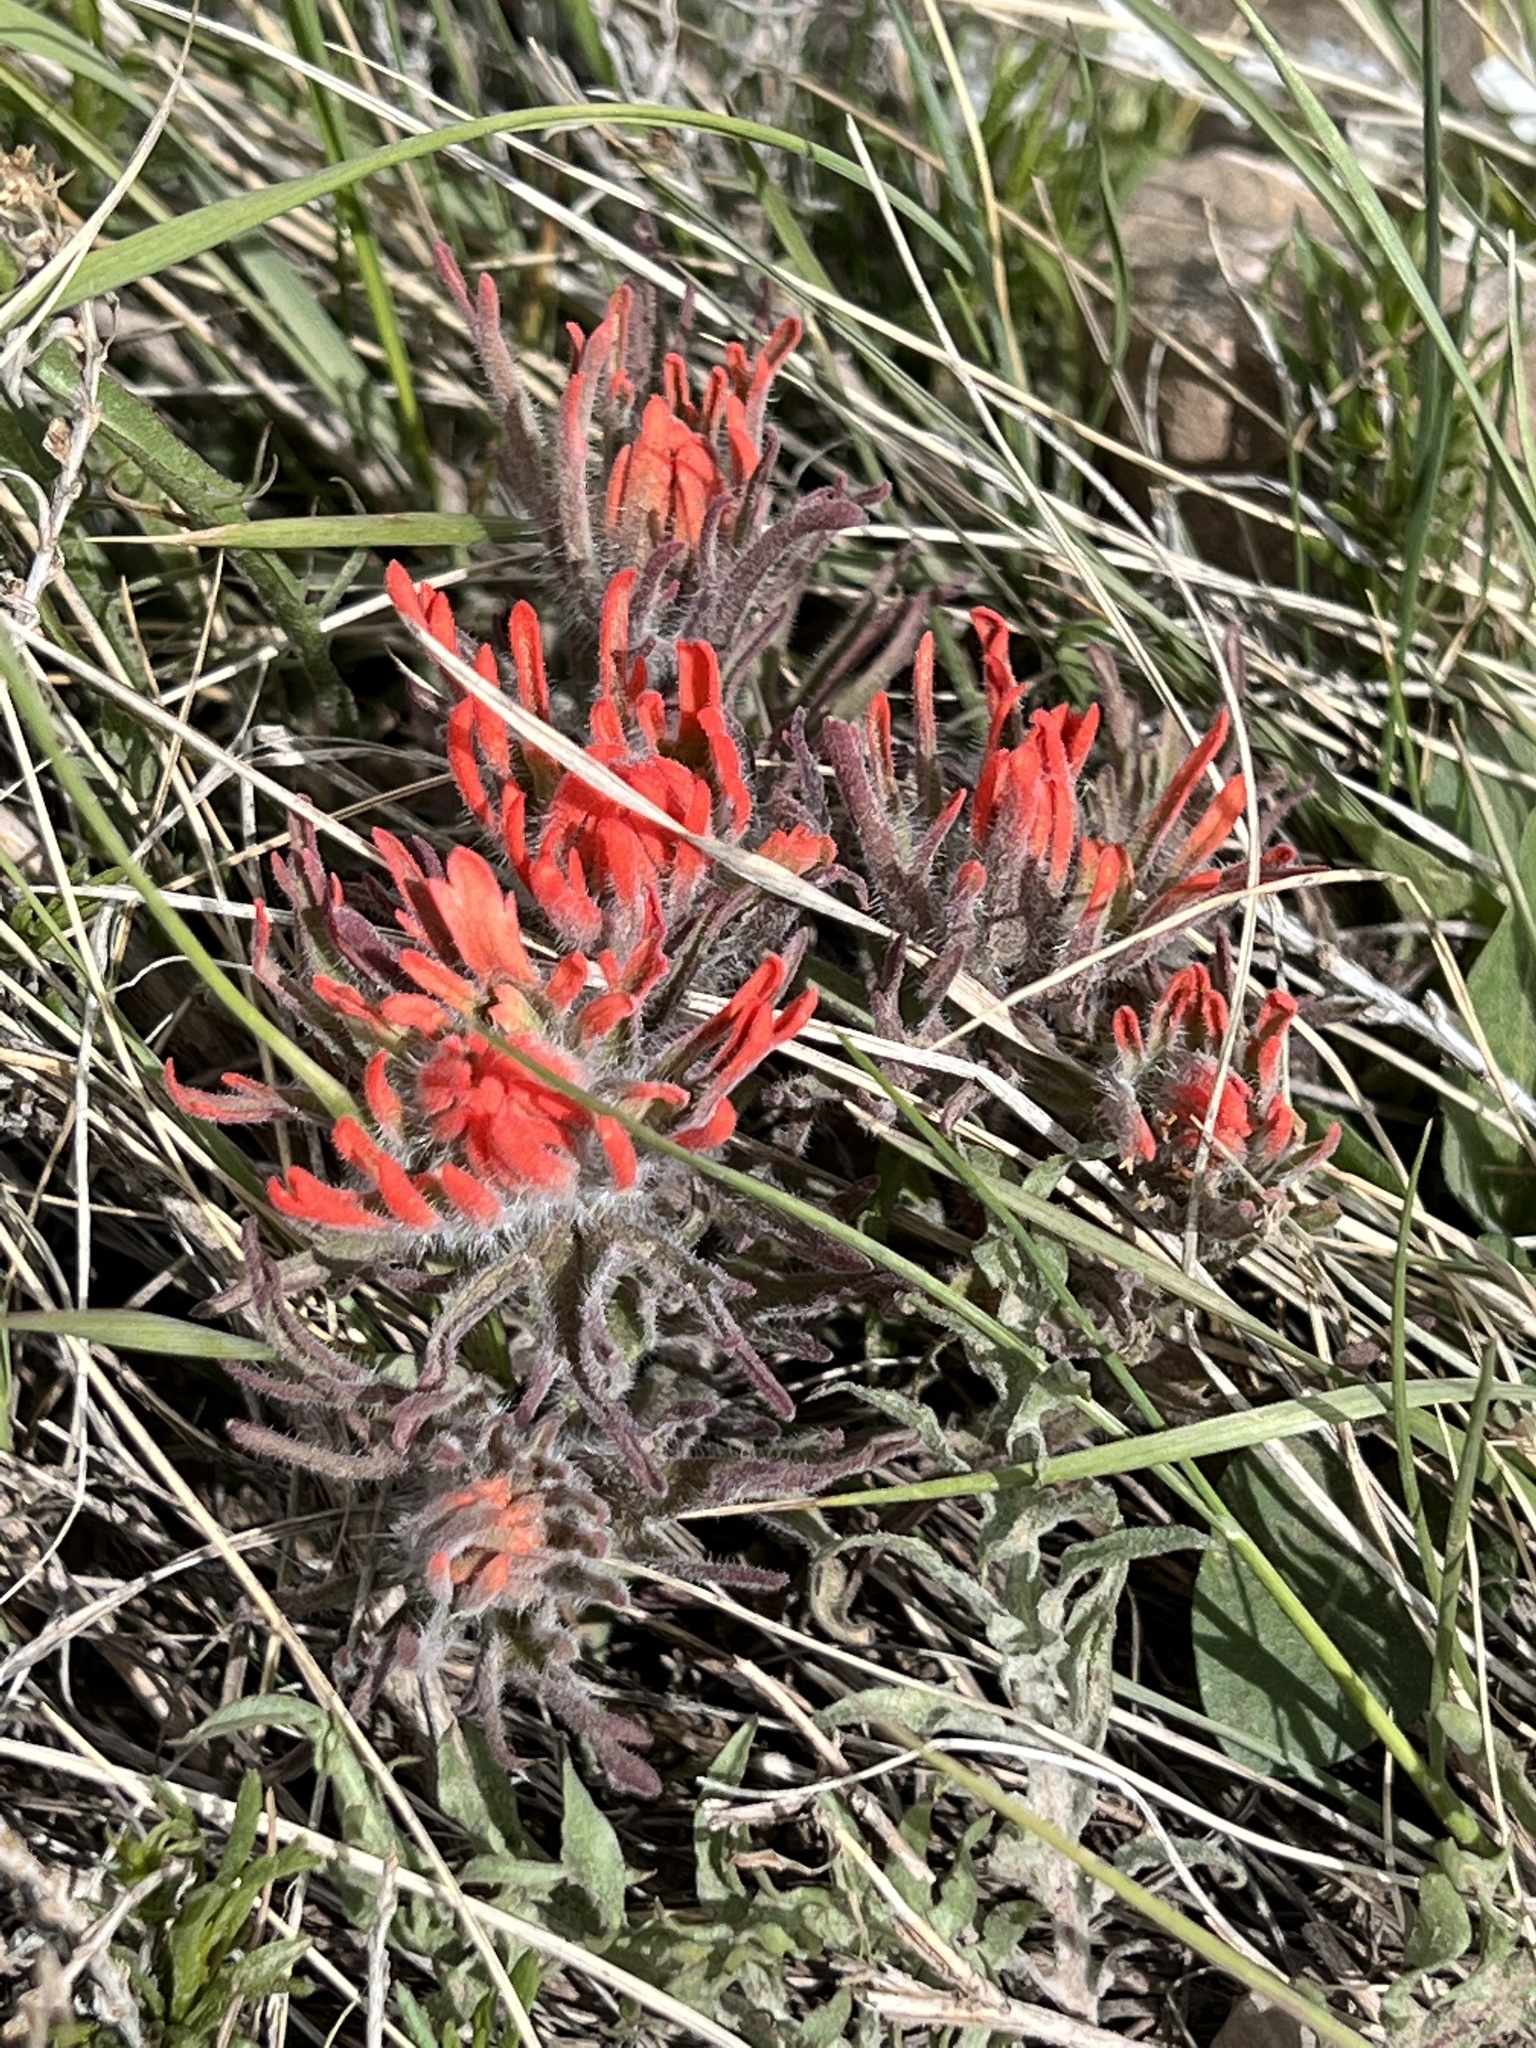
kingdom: Plantae
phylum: Tracheophyta
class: Magnoliopsida
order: Lamiales
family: Orobanchaceae
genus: Castilleja
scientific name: Castilleja chromosa
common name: Desert paintbrush
